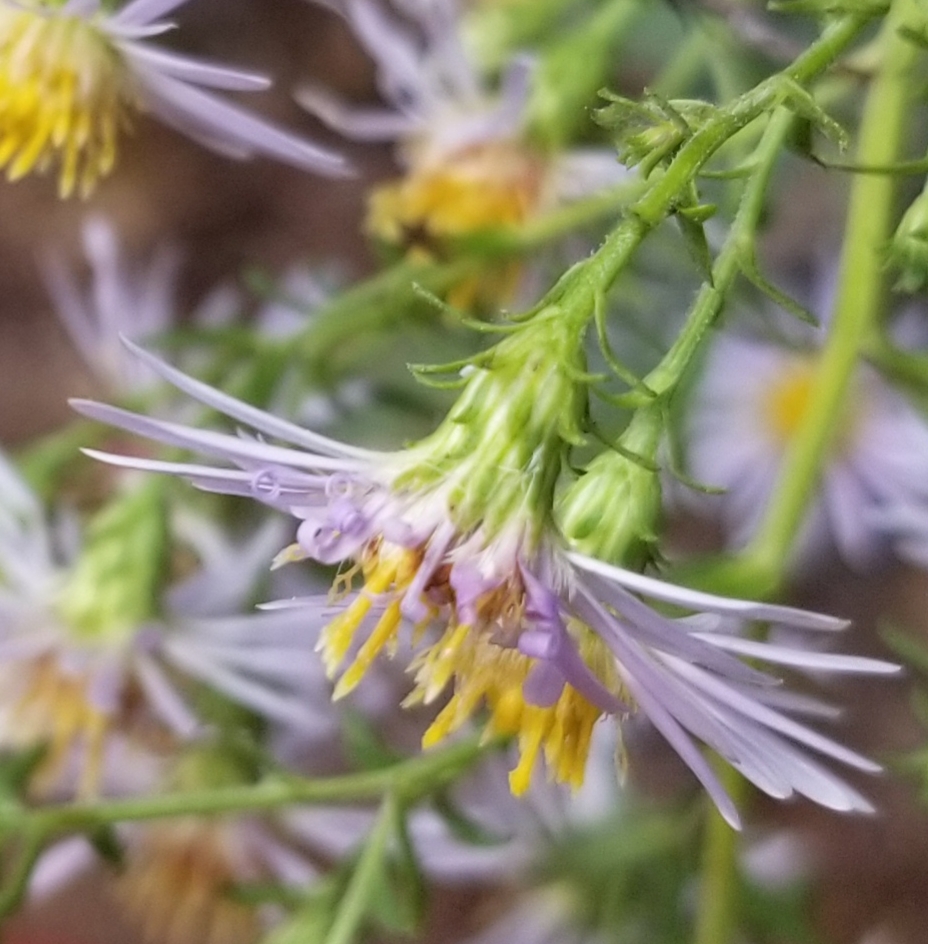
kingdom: Plantae
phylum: Tracheophyta
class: Magnoliopsida
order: Asterales
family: Asteraceae
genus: Symphyotrichum
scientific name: Symphyotrichum lanceolatum
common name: Panicled aster
